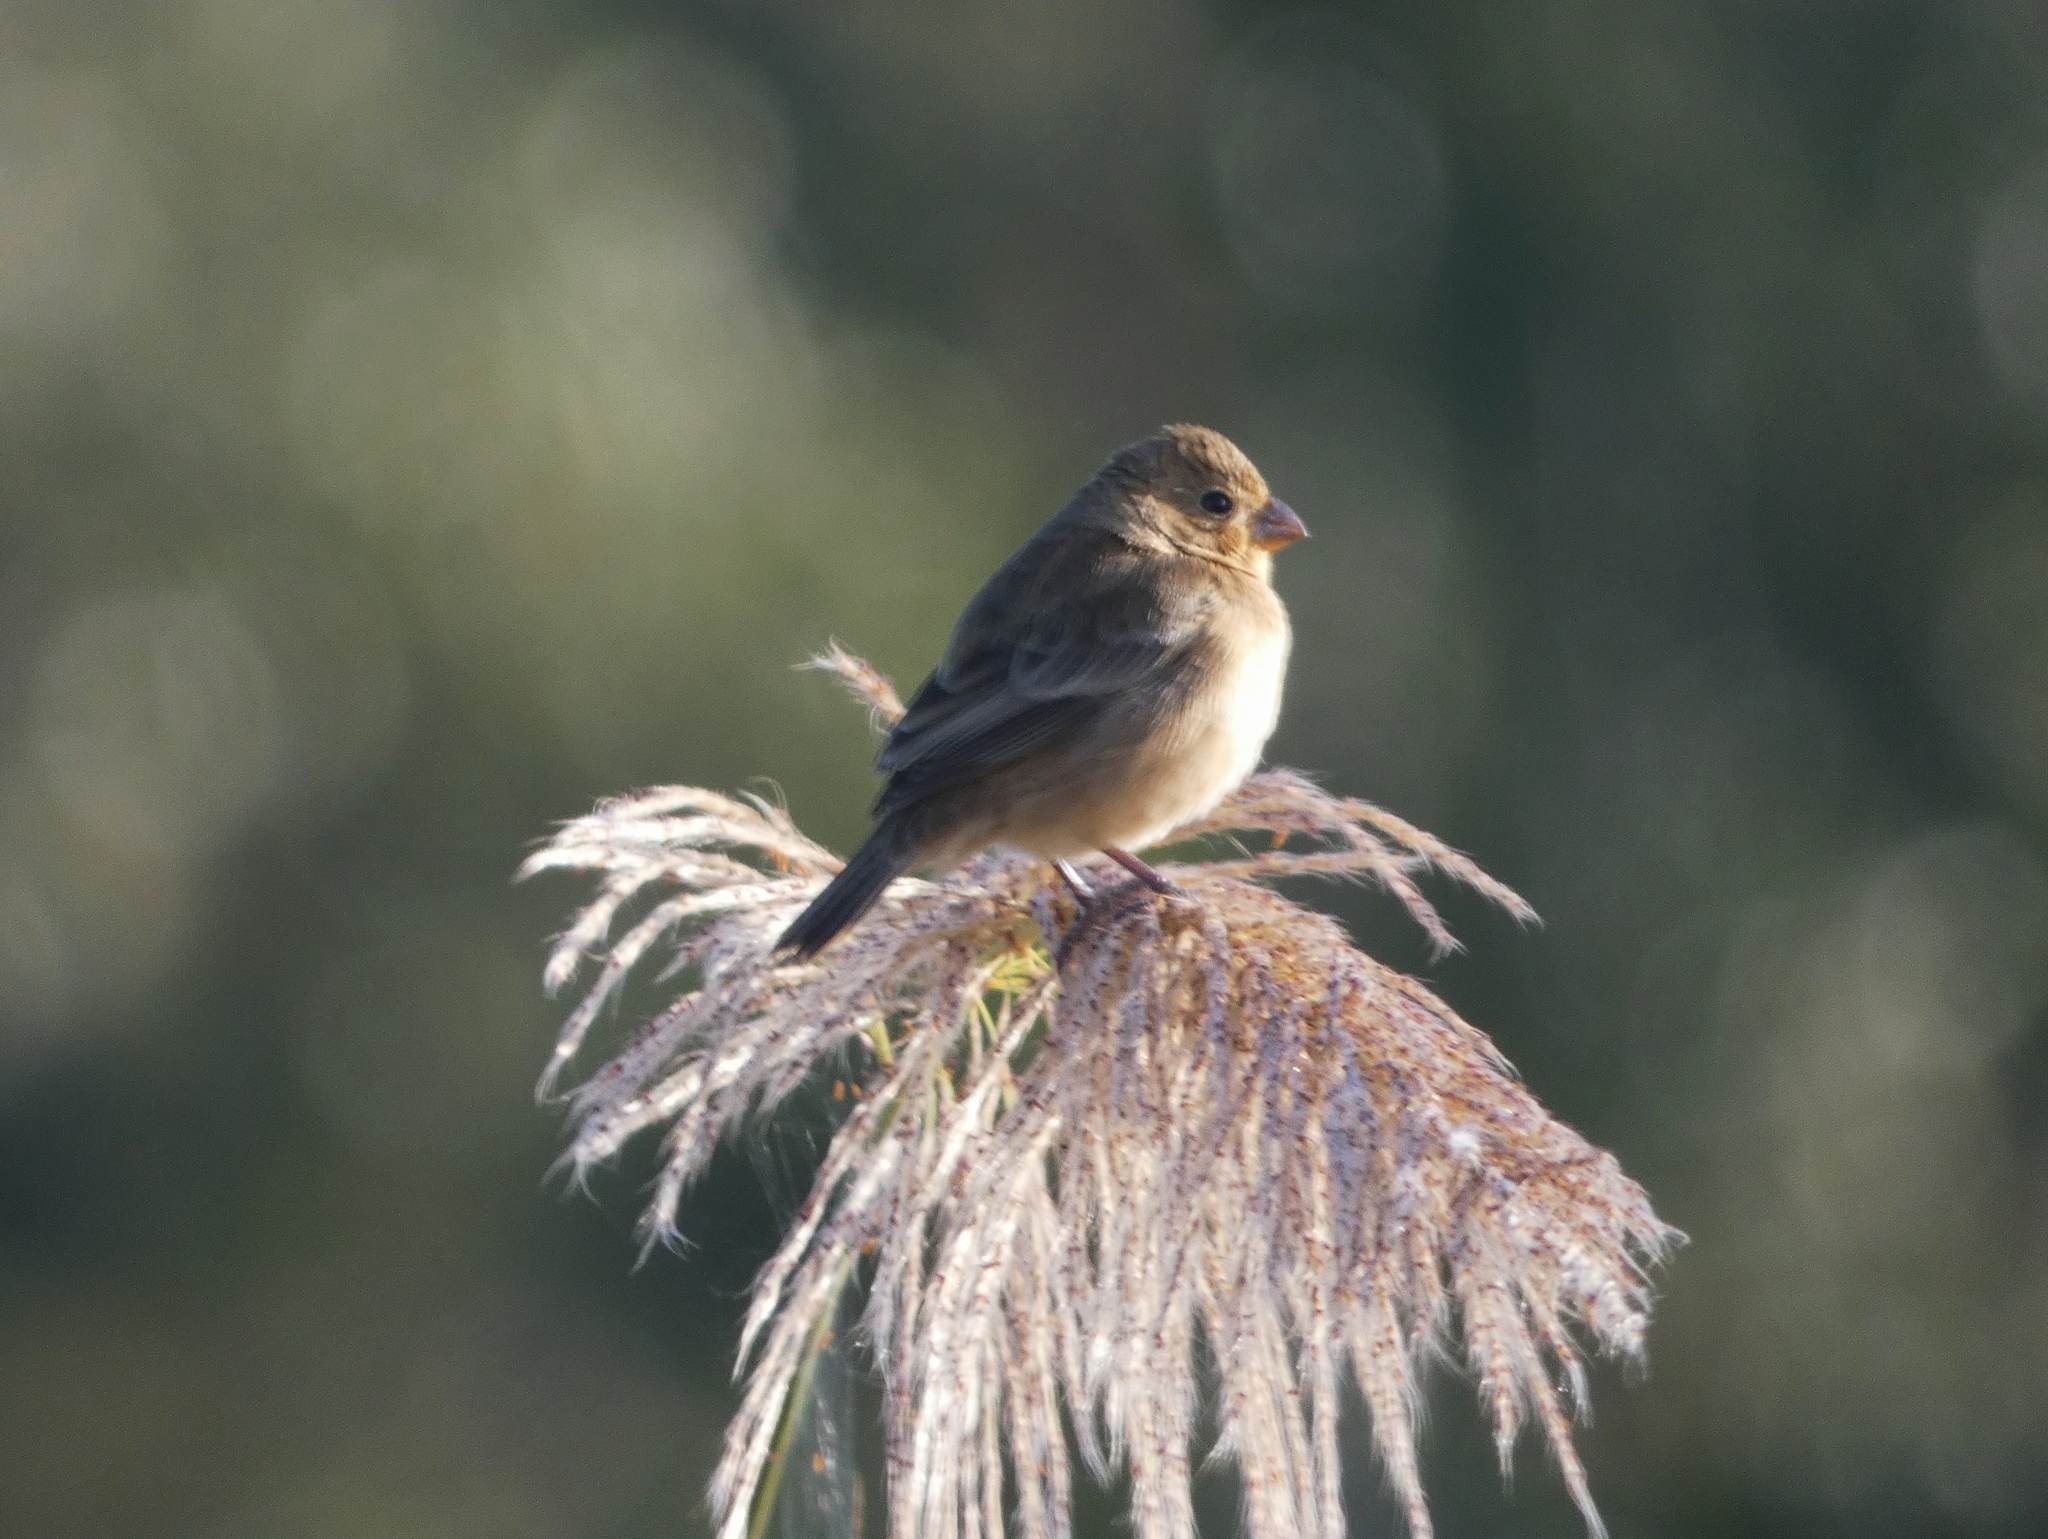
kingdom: Animalia
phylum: Chordata
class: Aves
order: Passeriformes
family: Thraupidae
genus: Sporophila
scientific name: Sporophila minuta
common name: Ruddy-breasted seedeater
